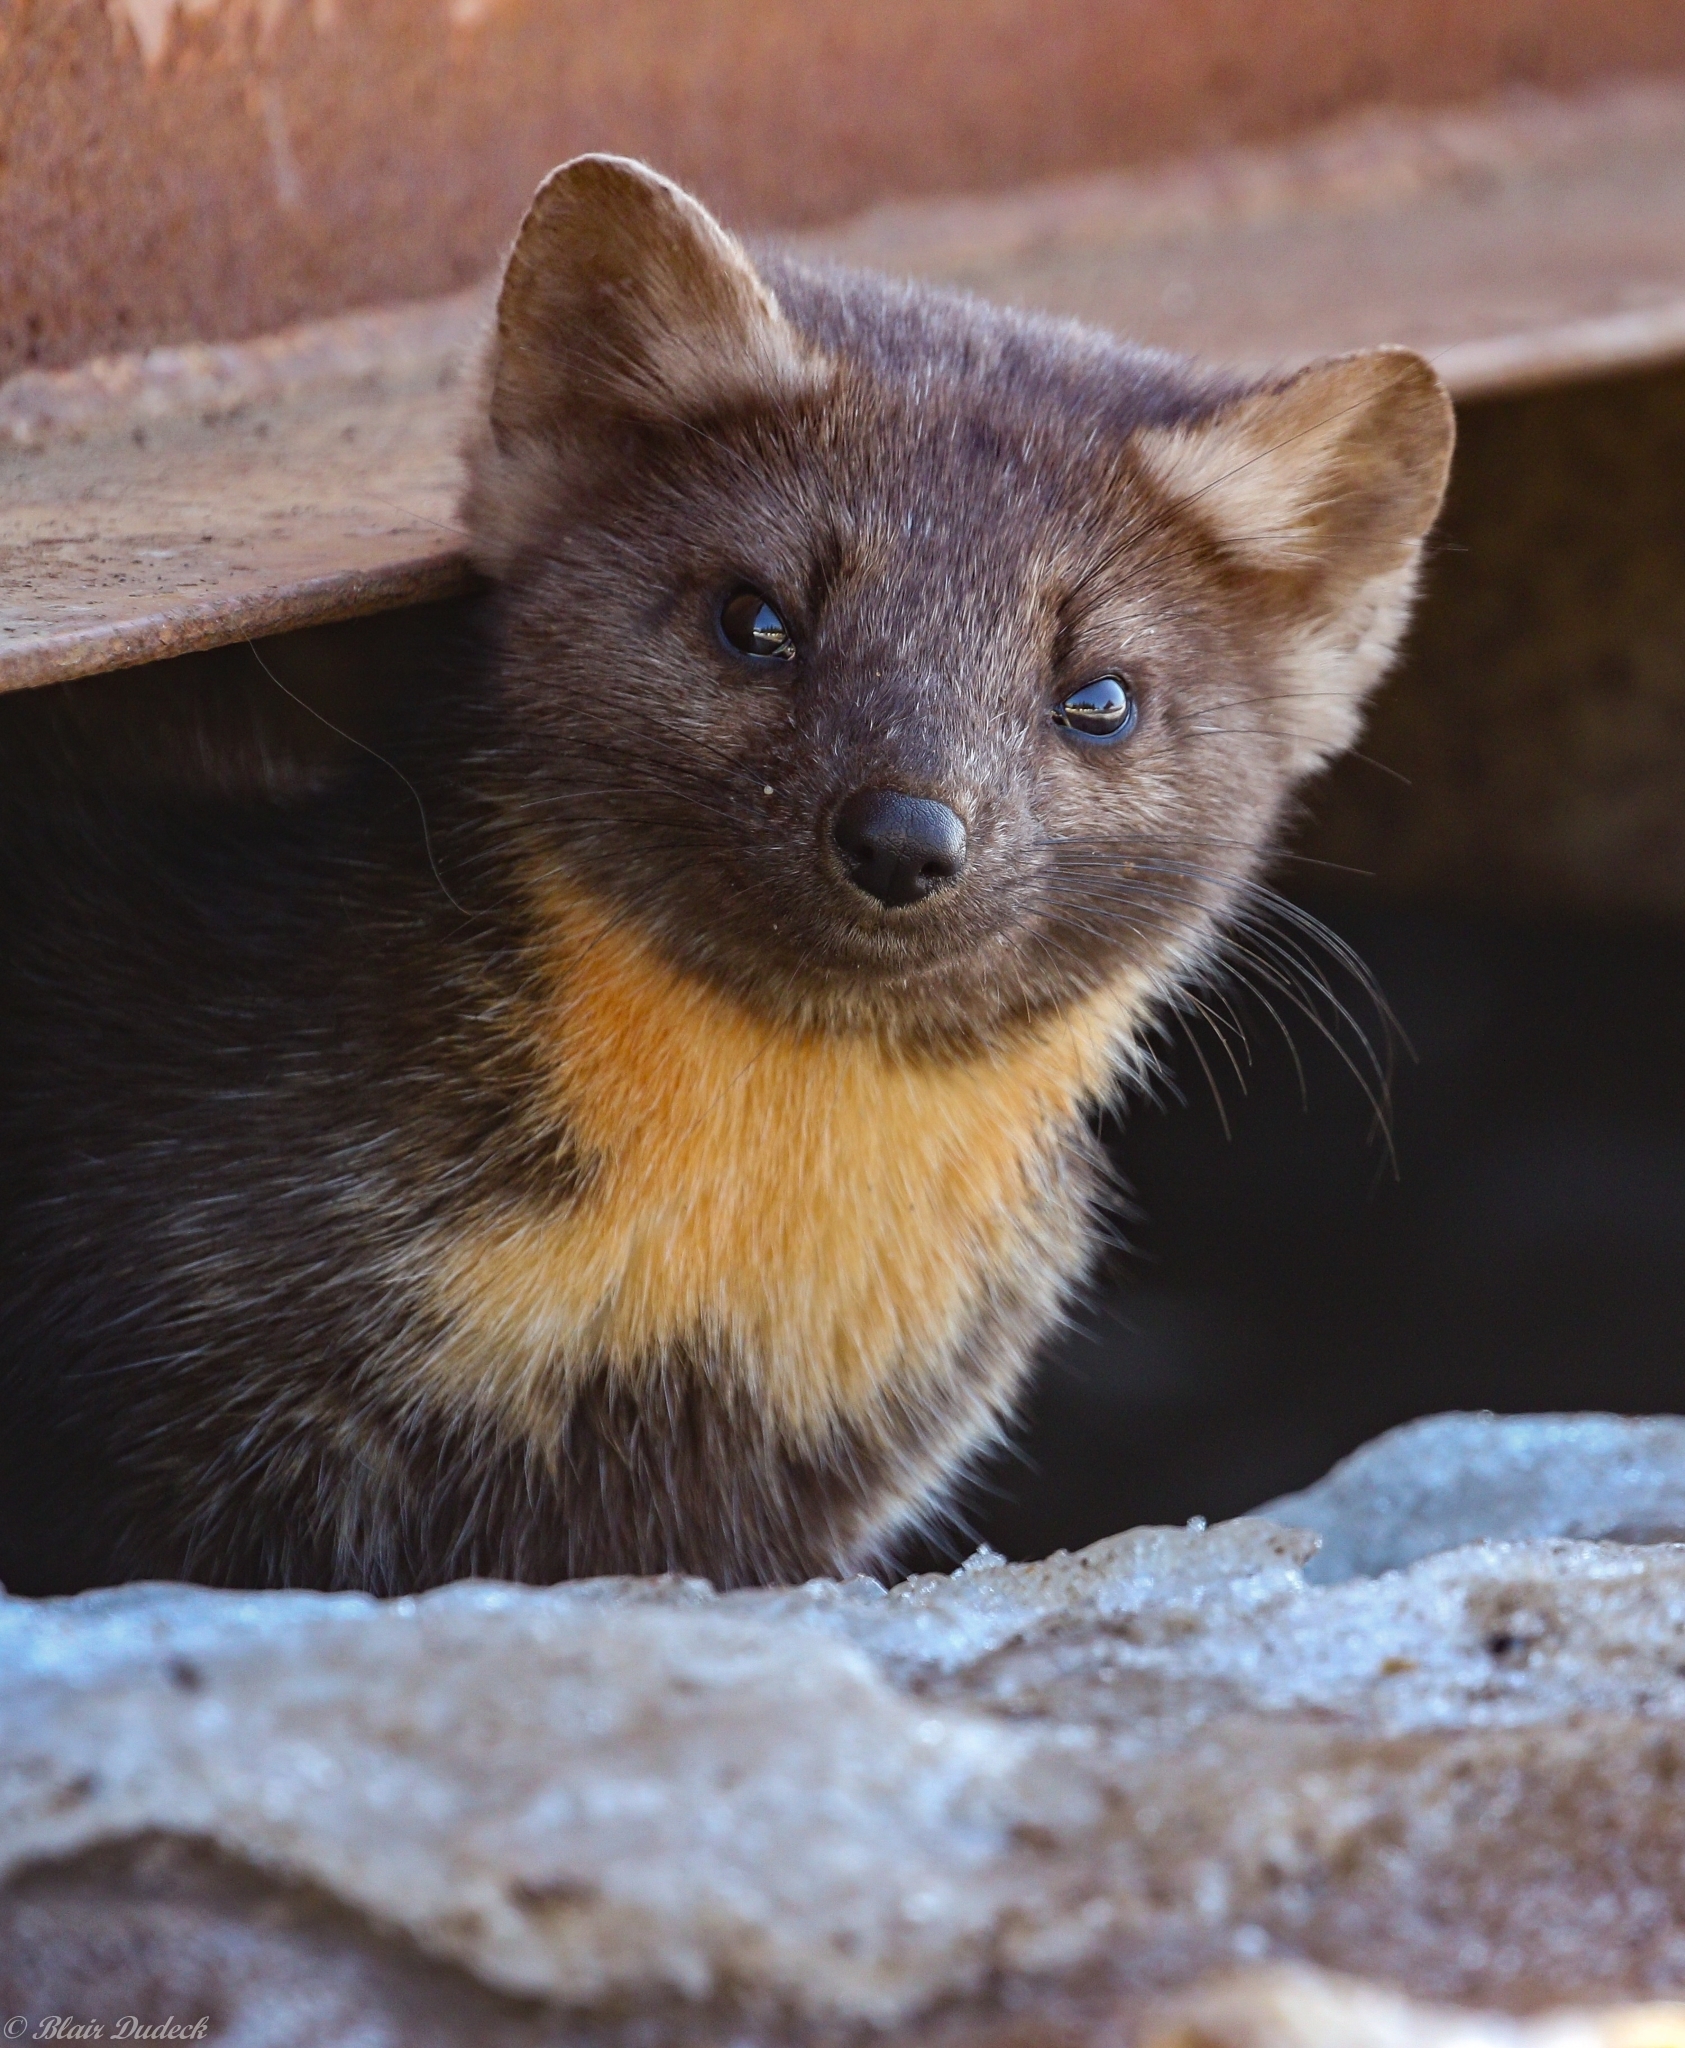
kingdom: Animalia
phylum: Chordata
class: Mammalia
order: Carnivora
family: Mustelidae
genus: Martes
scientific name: Martes caurina
